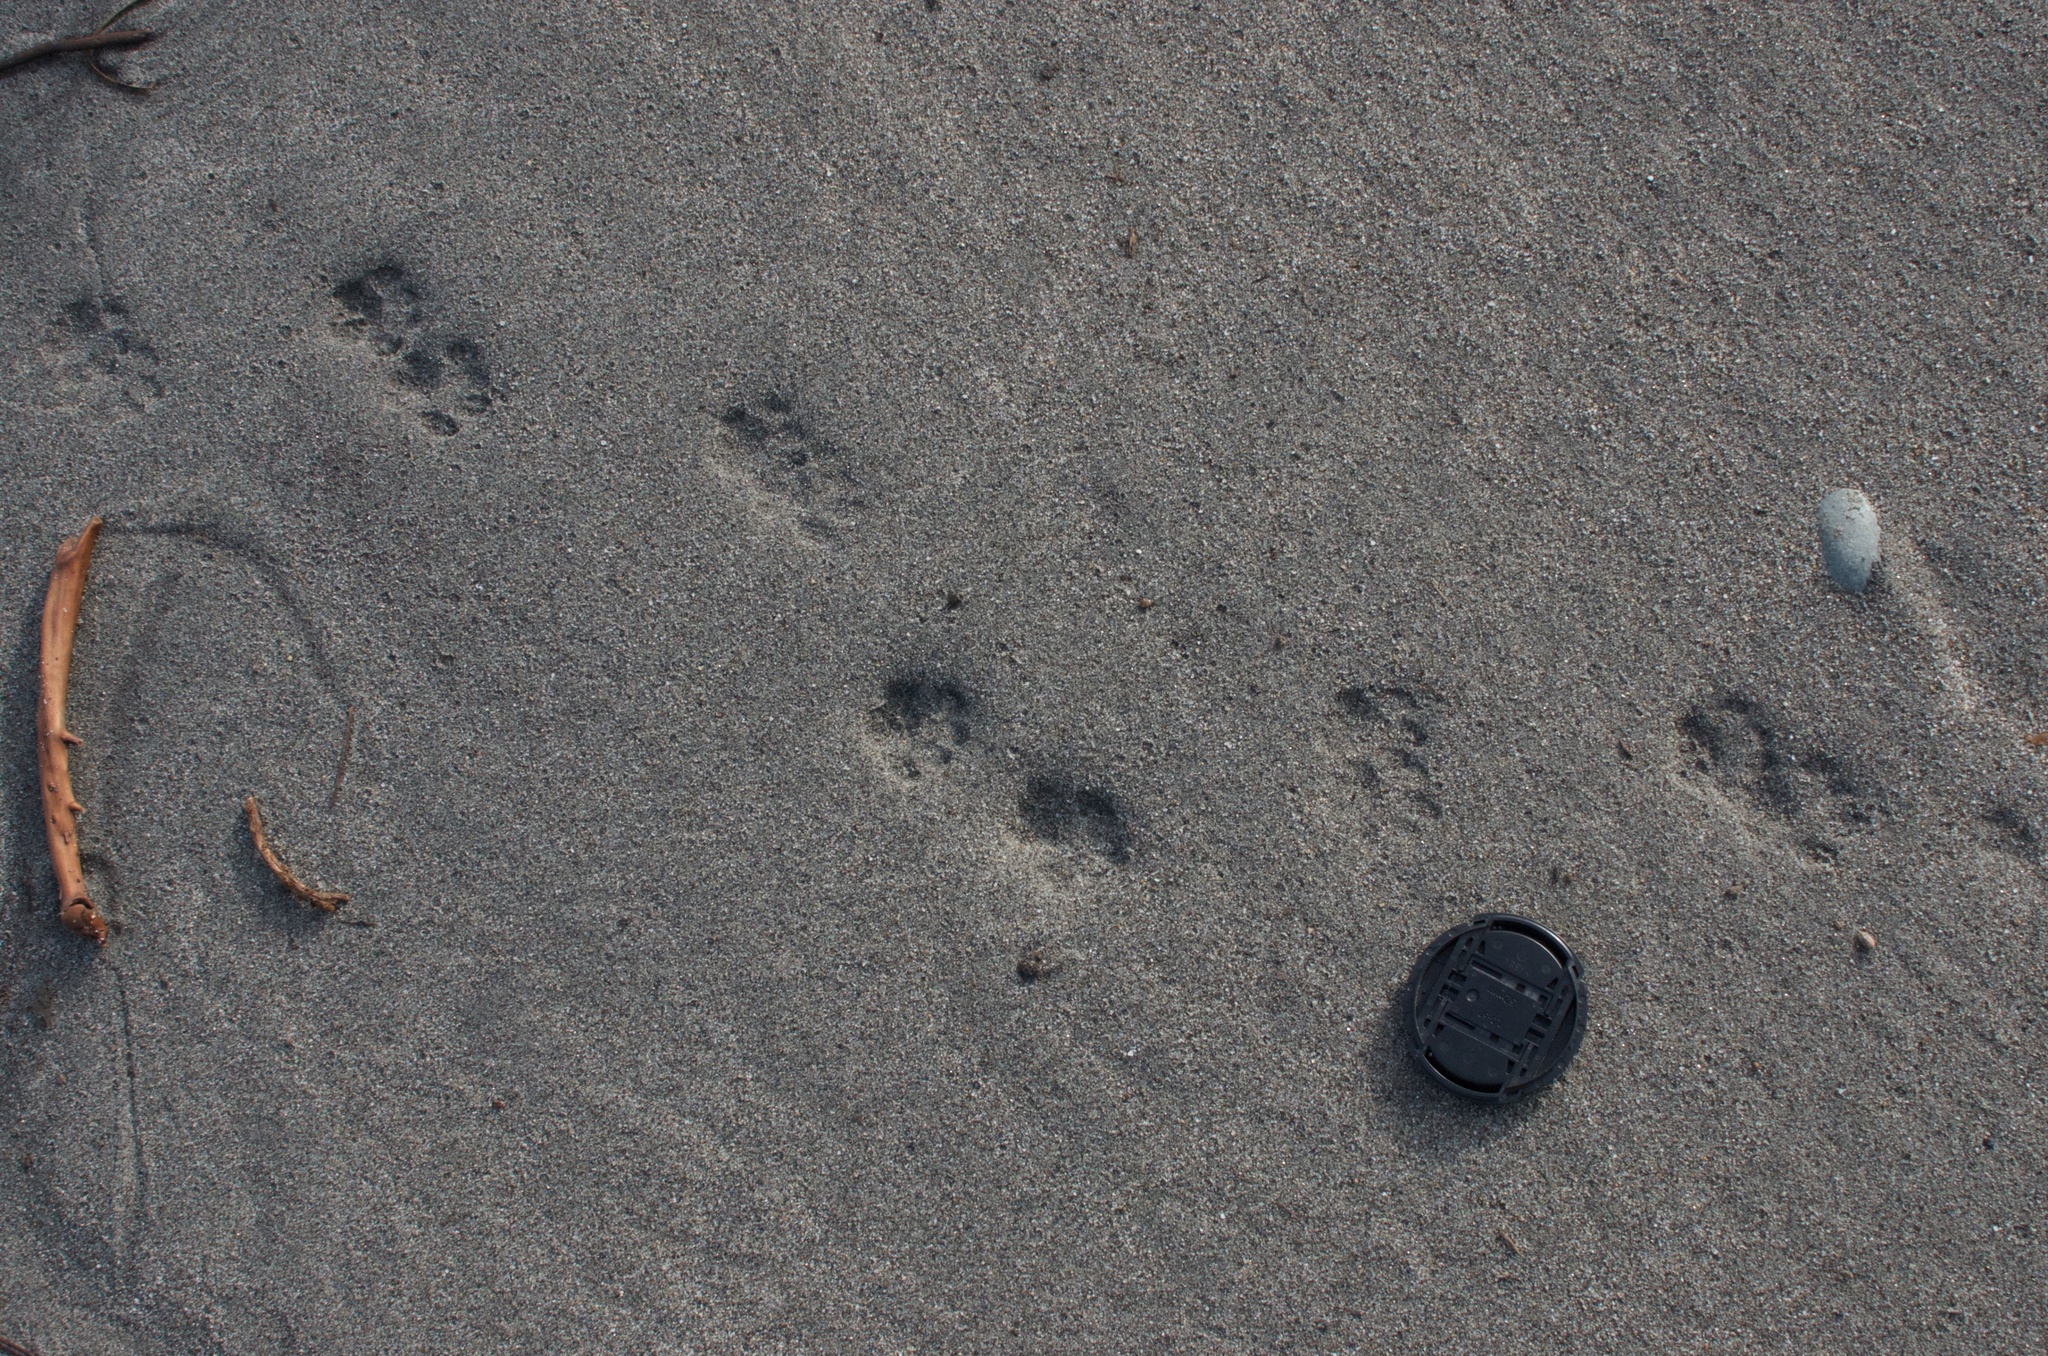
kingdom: Animalia
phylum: Chordata
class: Mammalia
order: Carnivora
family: Felidae
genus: Felis
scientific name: Felis catus
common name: Domestic cat
